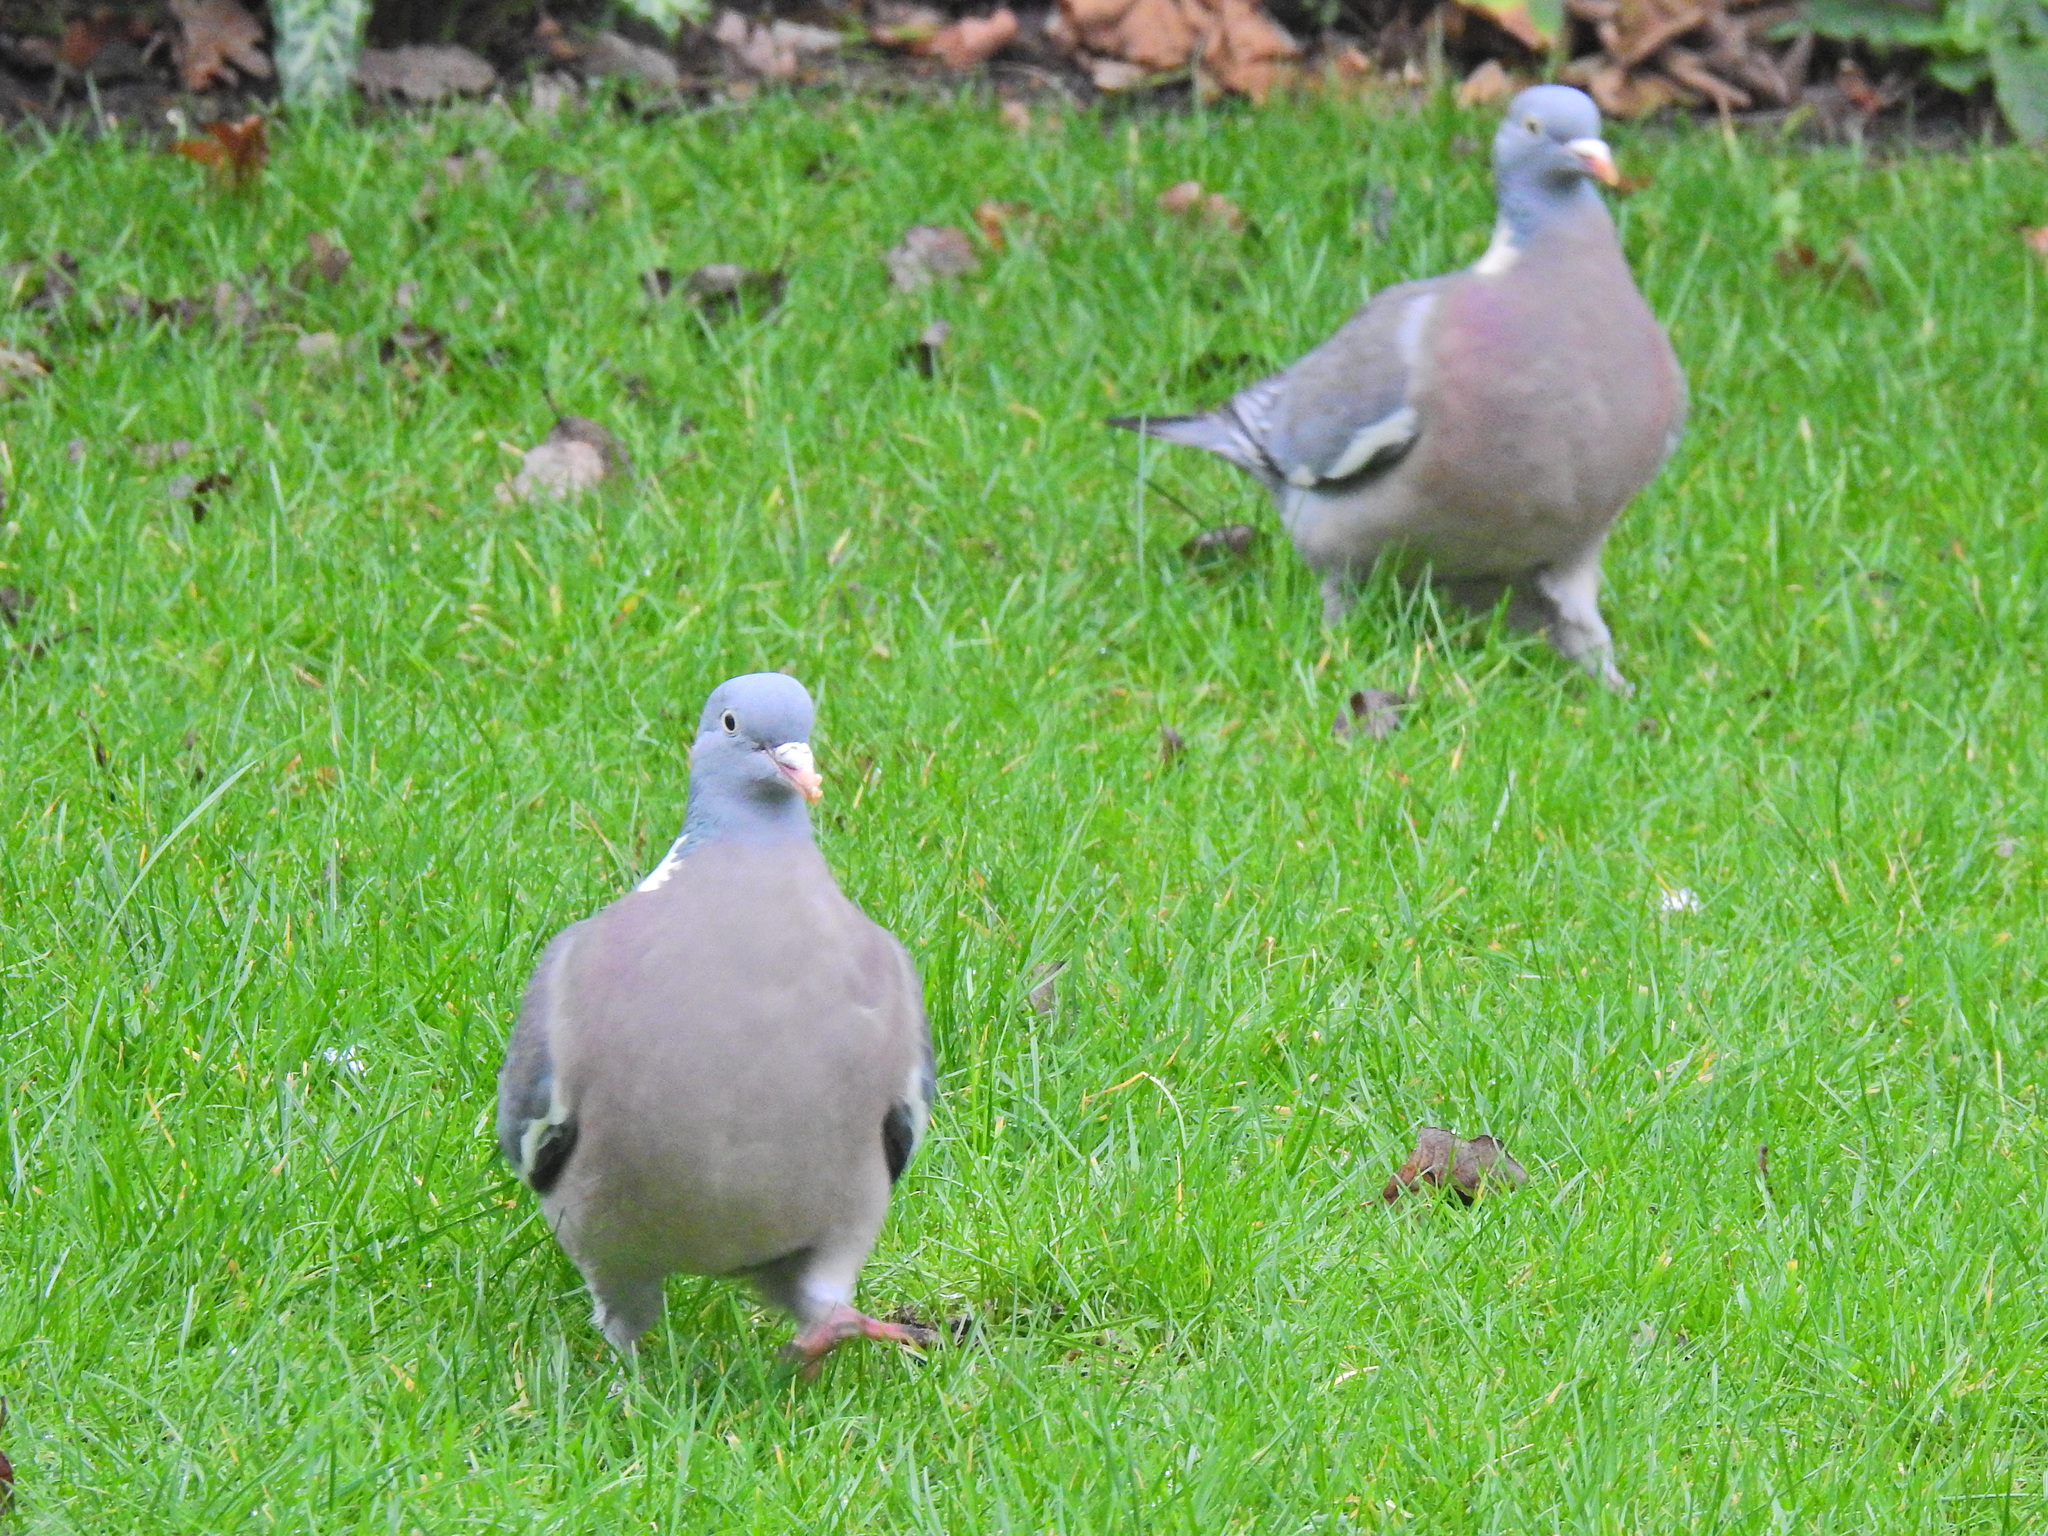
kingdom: Animalia
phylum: Chordata
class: Aves
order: Columbiformes
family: Columbidae
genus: Columba
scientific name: Columba palumbus
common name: Common wood pigeon
